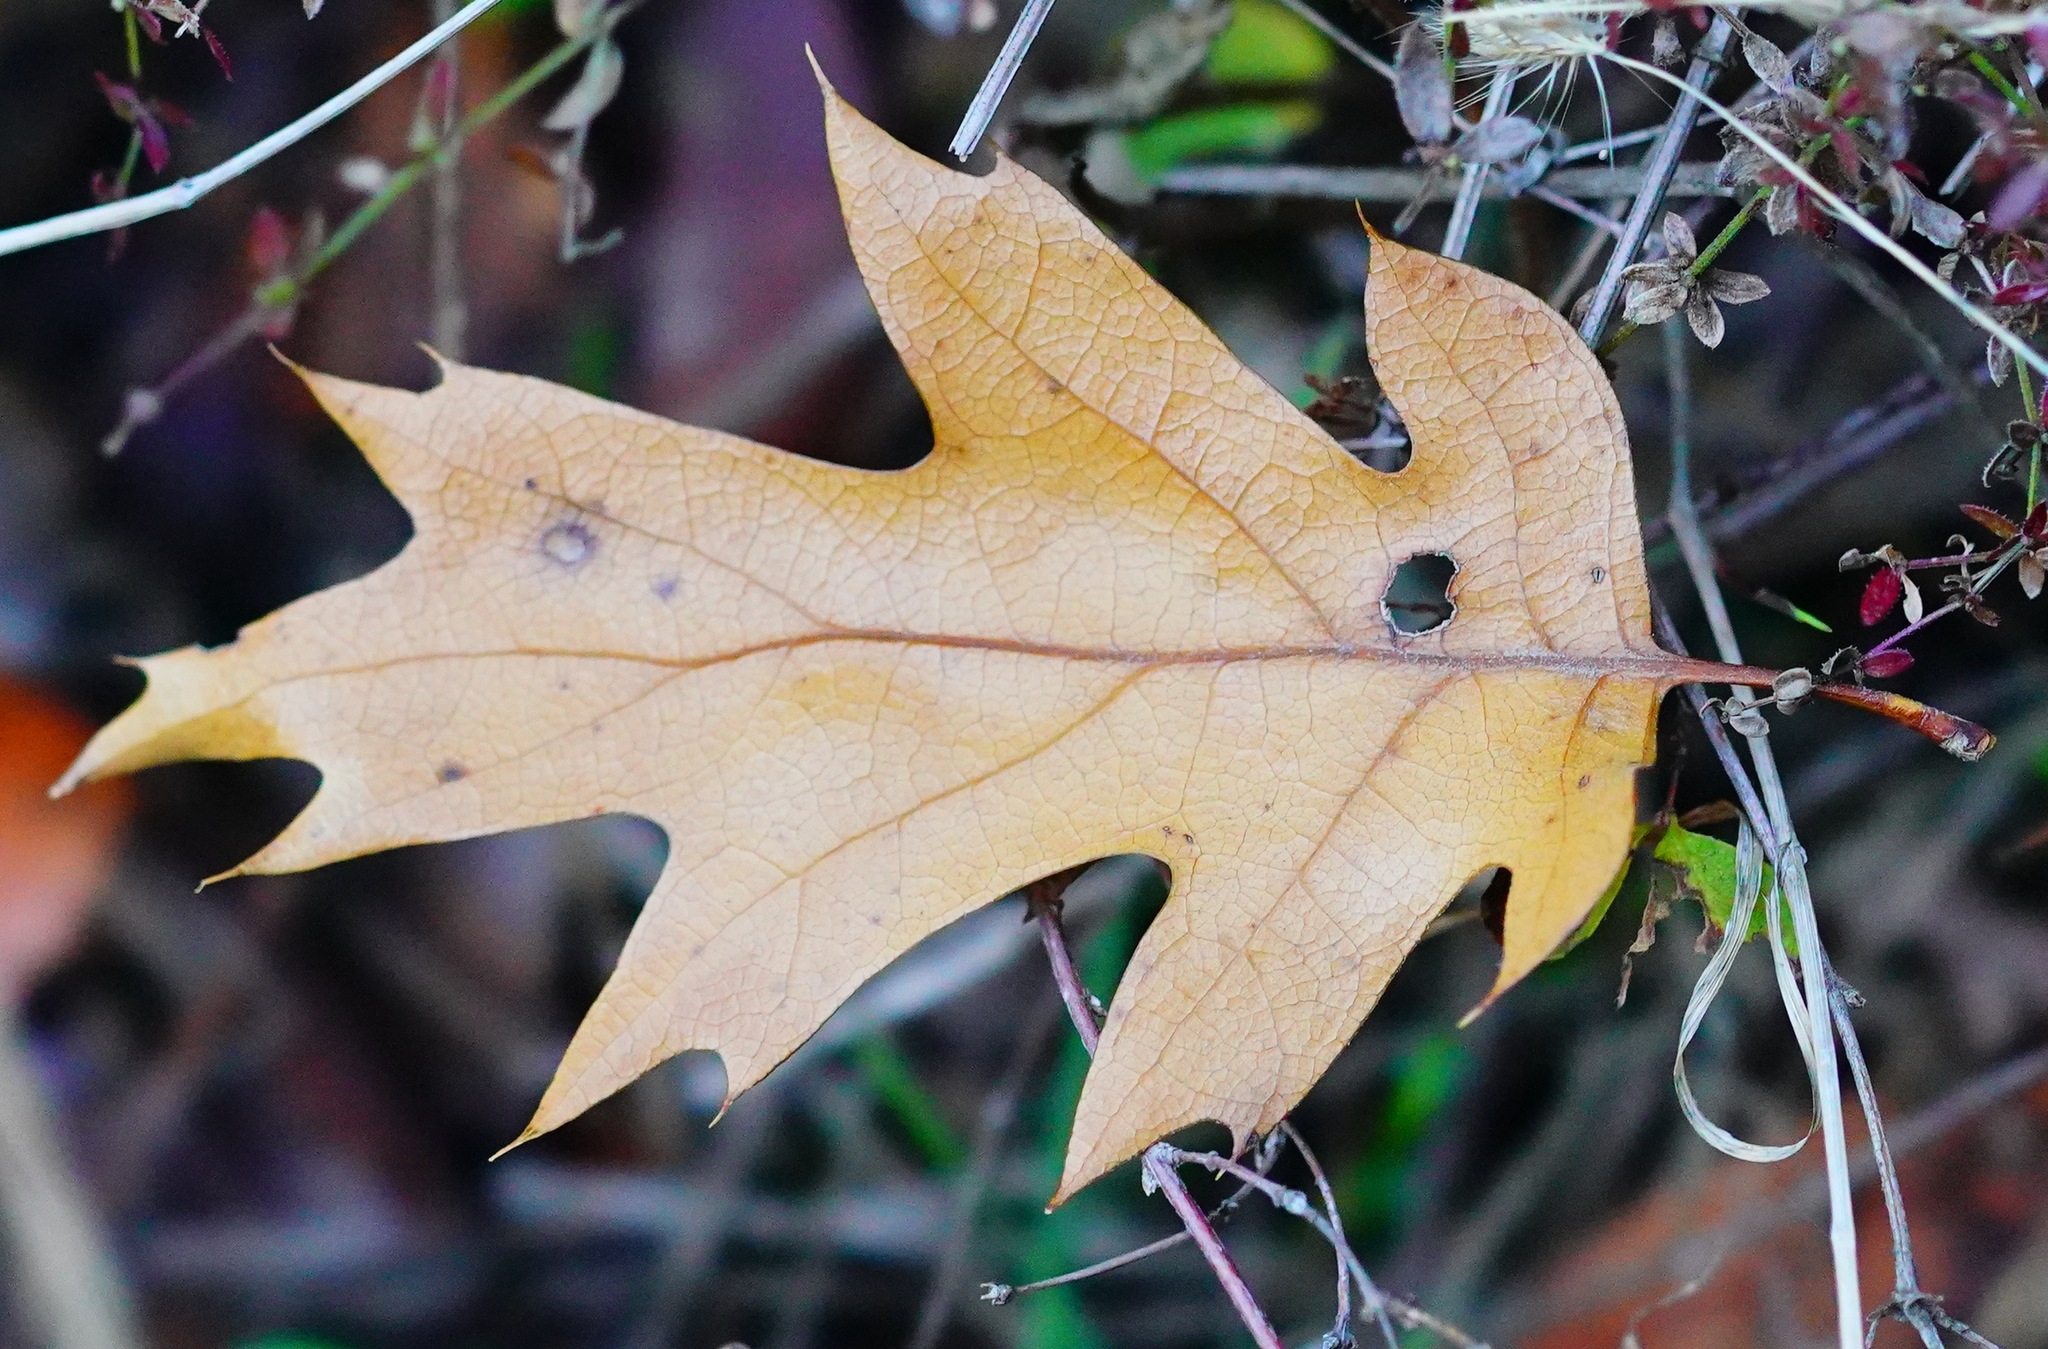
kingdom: Plantae
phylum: Tracheophyta
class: Magnoliopsida
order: Fagales
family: Fagaceae
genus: Quercus
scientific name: Quercus kelloggii
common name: California black oak
